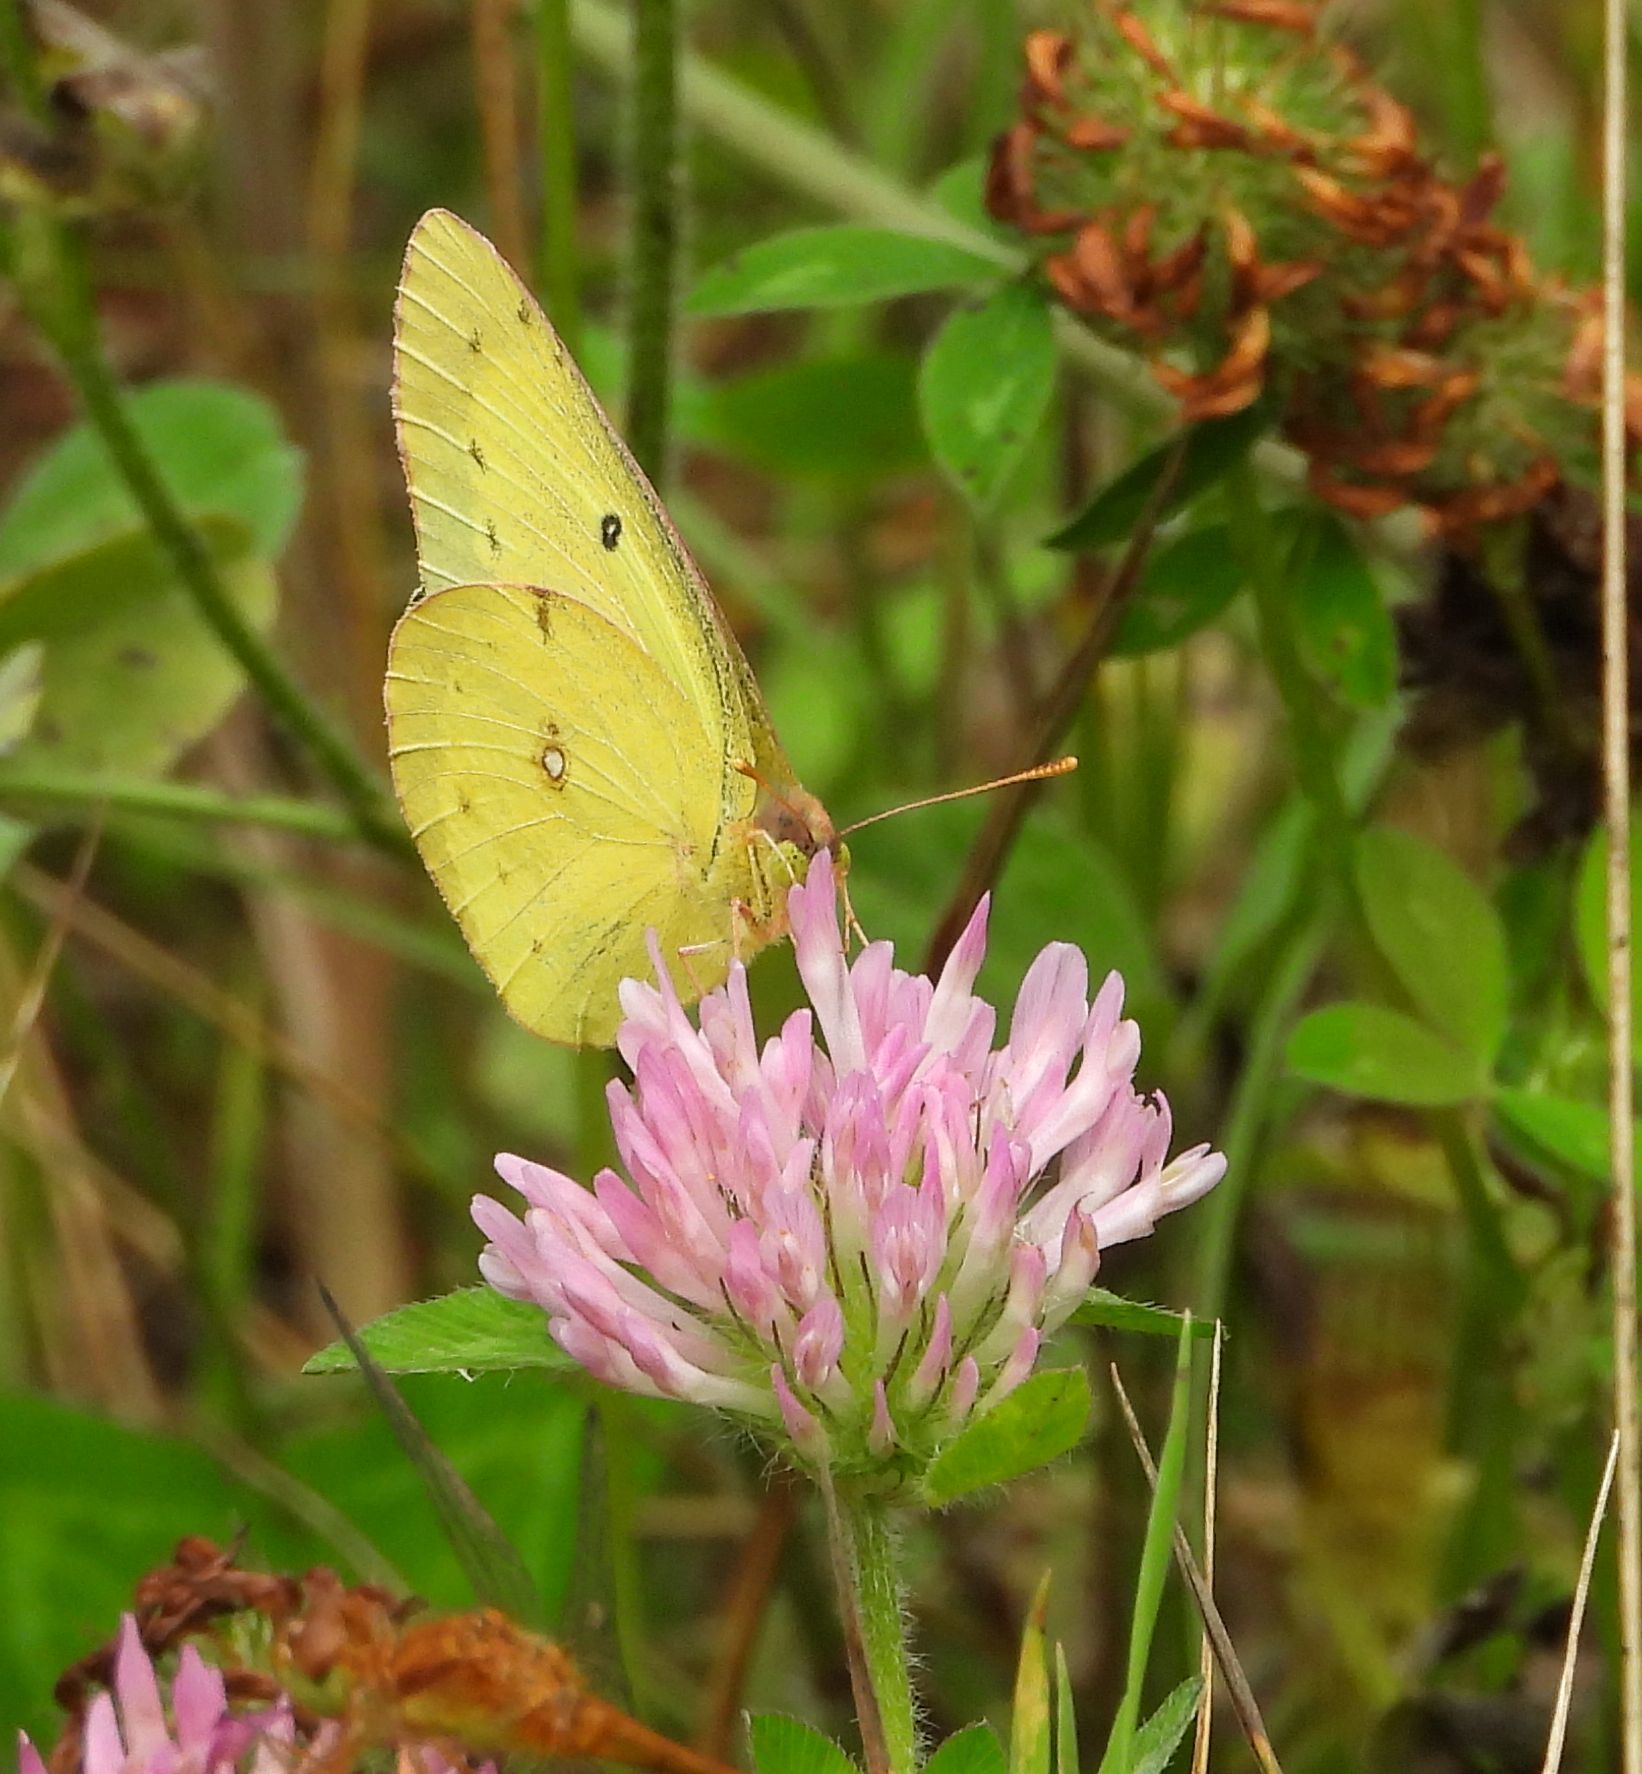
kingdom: Animalia
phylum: Arthropoda
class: Insecta
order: Lepidoptera
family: Pieridae
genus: Colias
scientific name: Colias philodice
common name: Clouded sulphur
